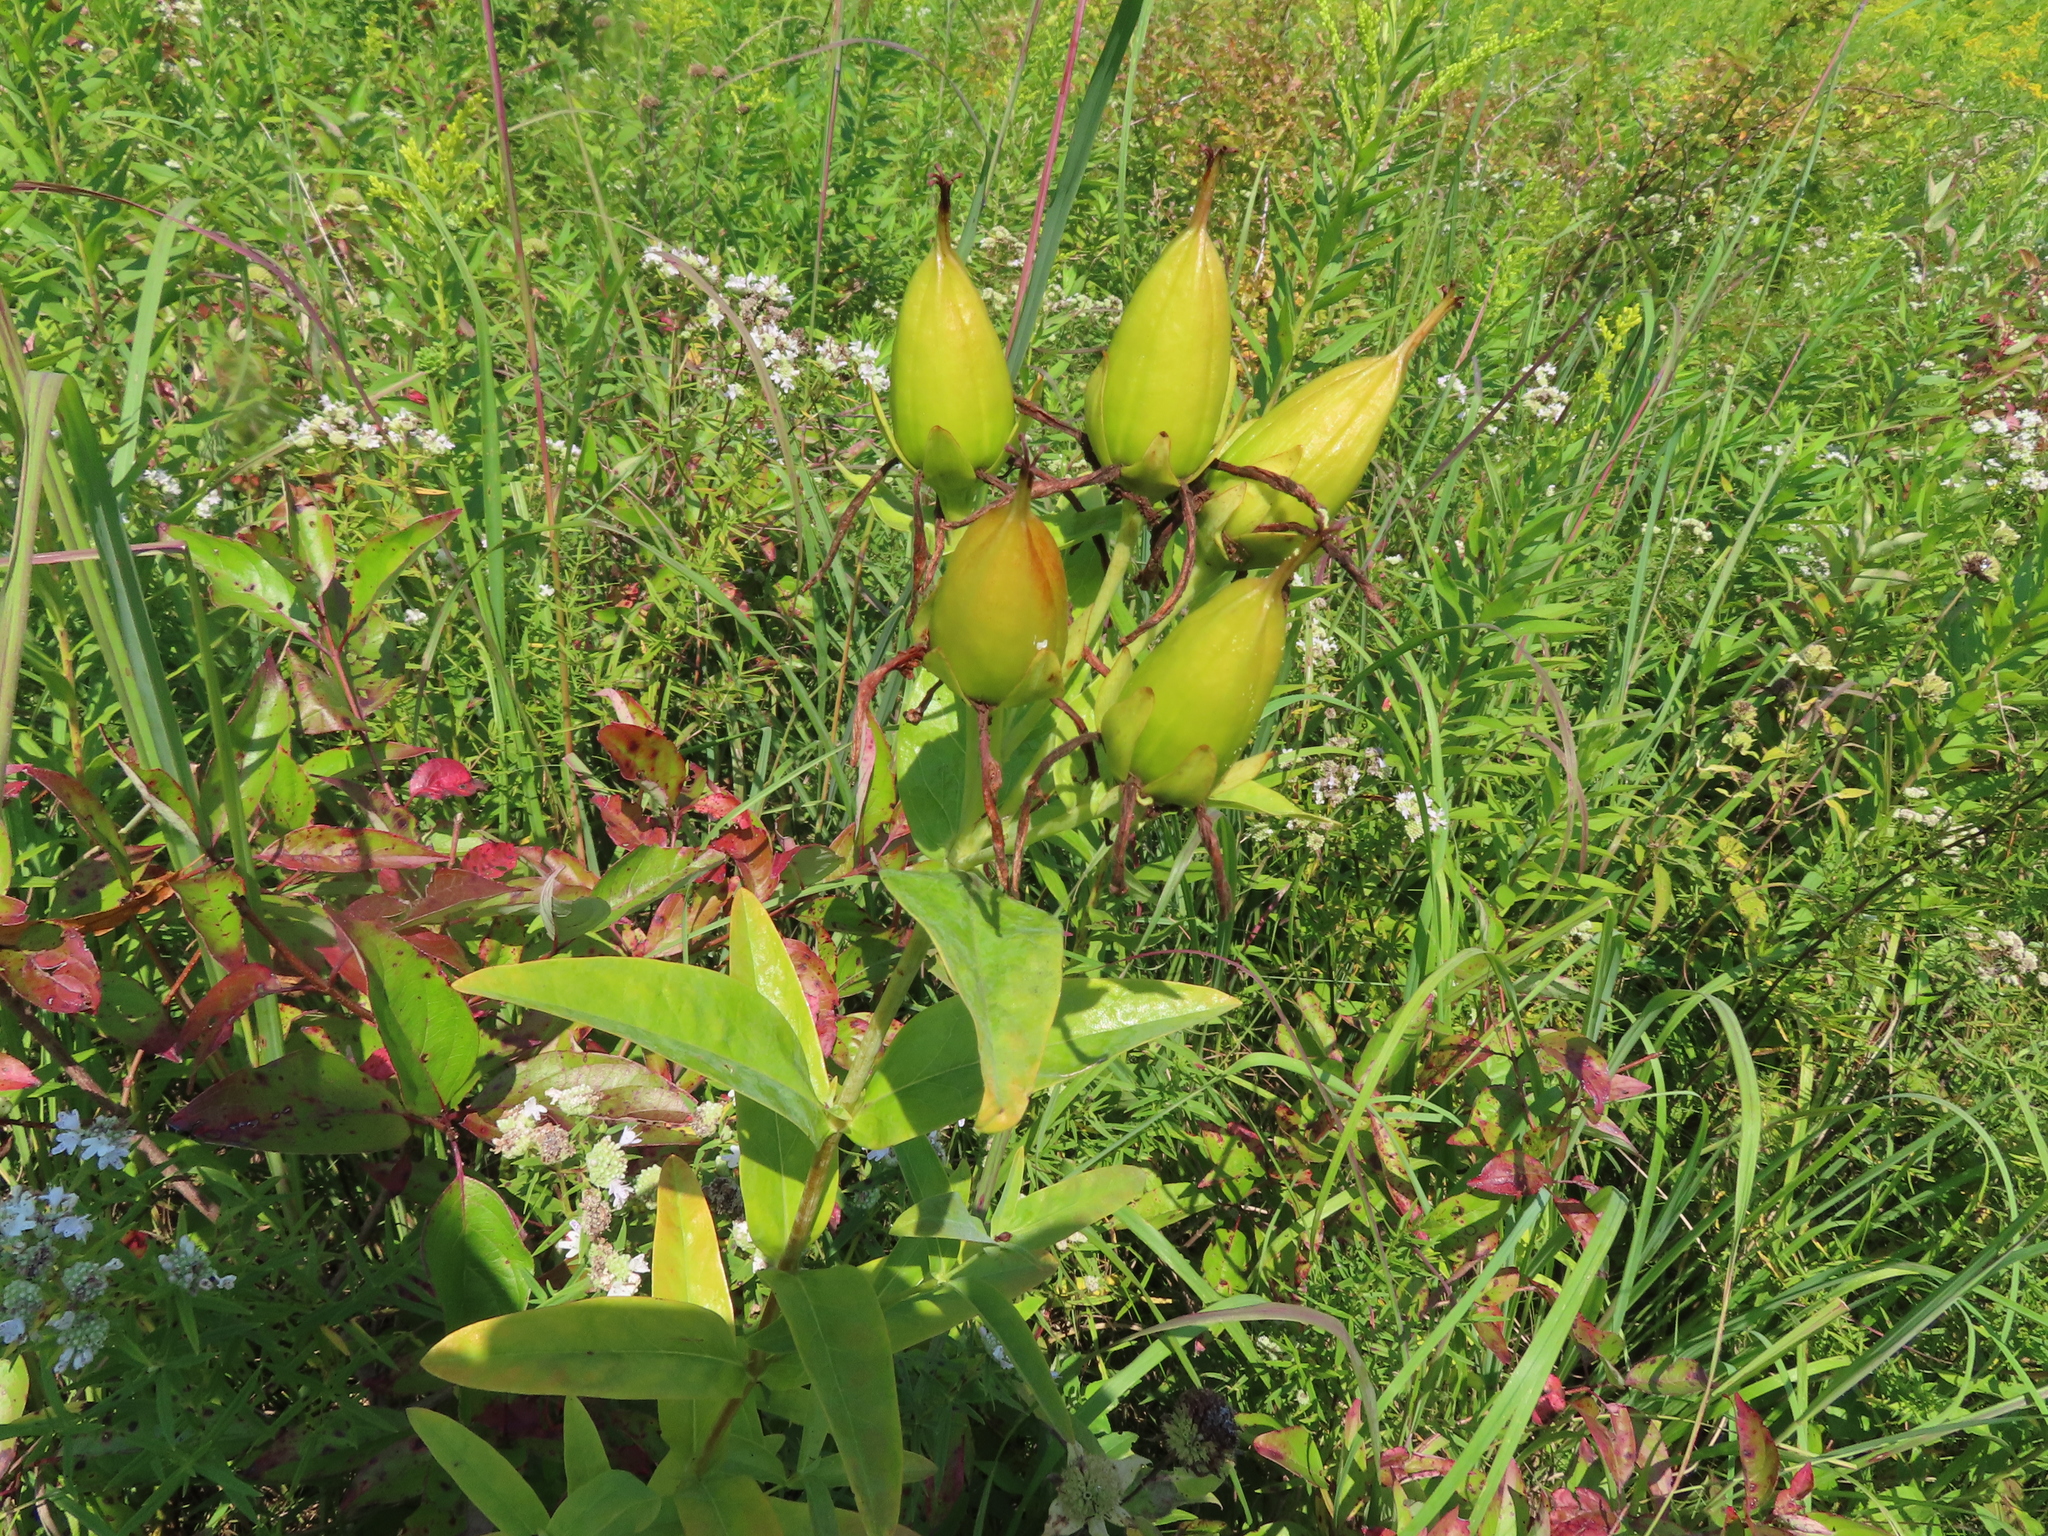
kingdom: Plantae
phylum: Tracheophyta
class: Magnoliopsida
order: Malpighiales
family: Hypericaceae
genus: Hypericum
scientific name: Hypericum ascyron
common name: Giant st. john's-wort
